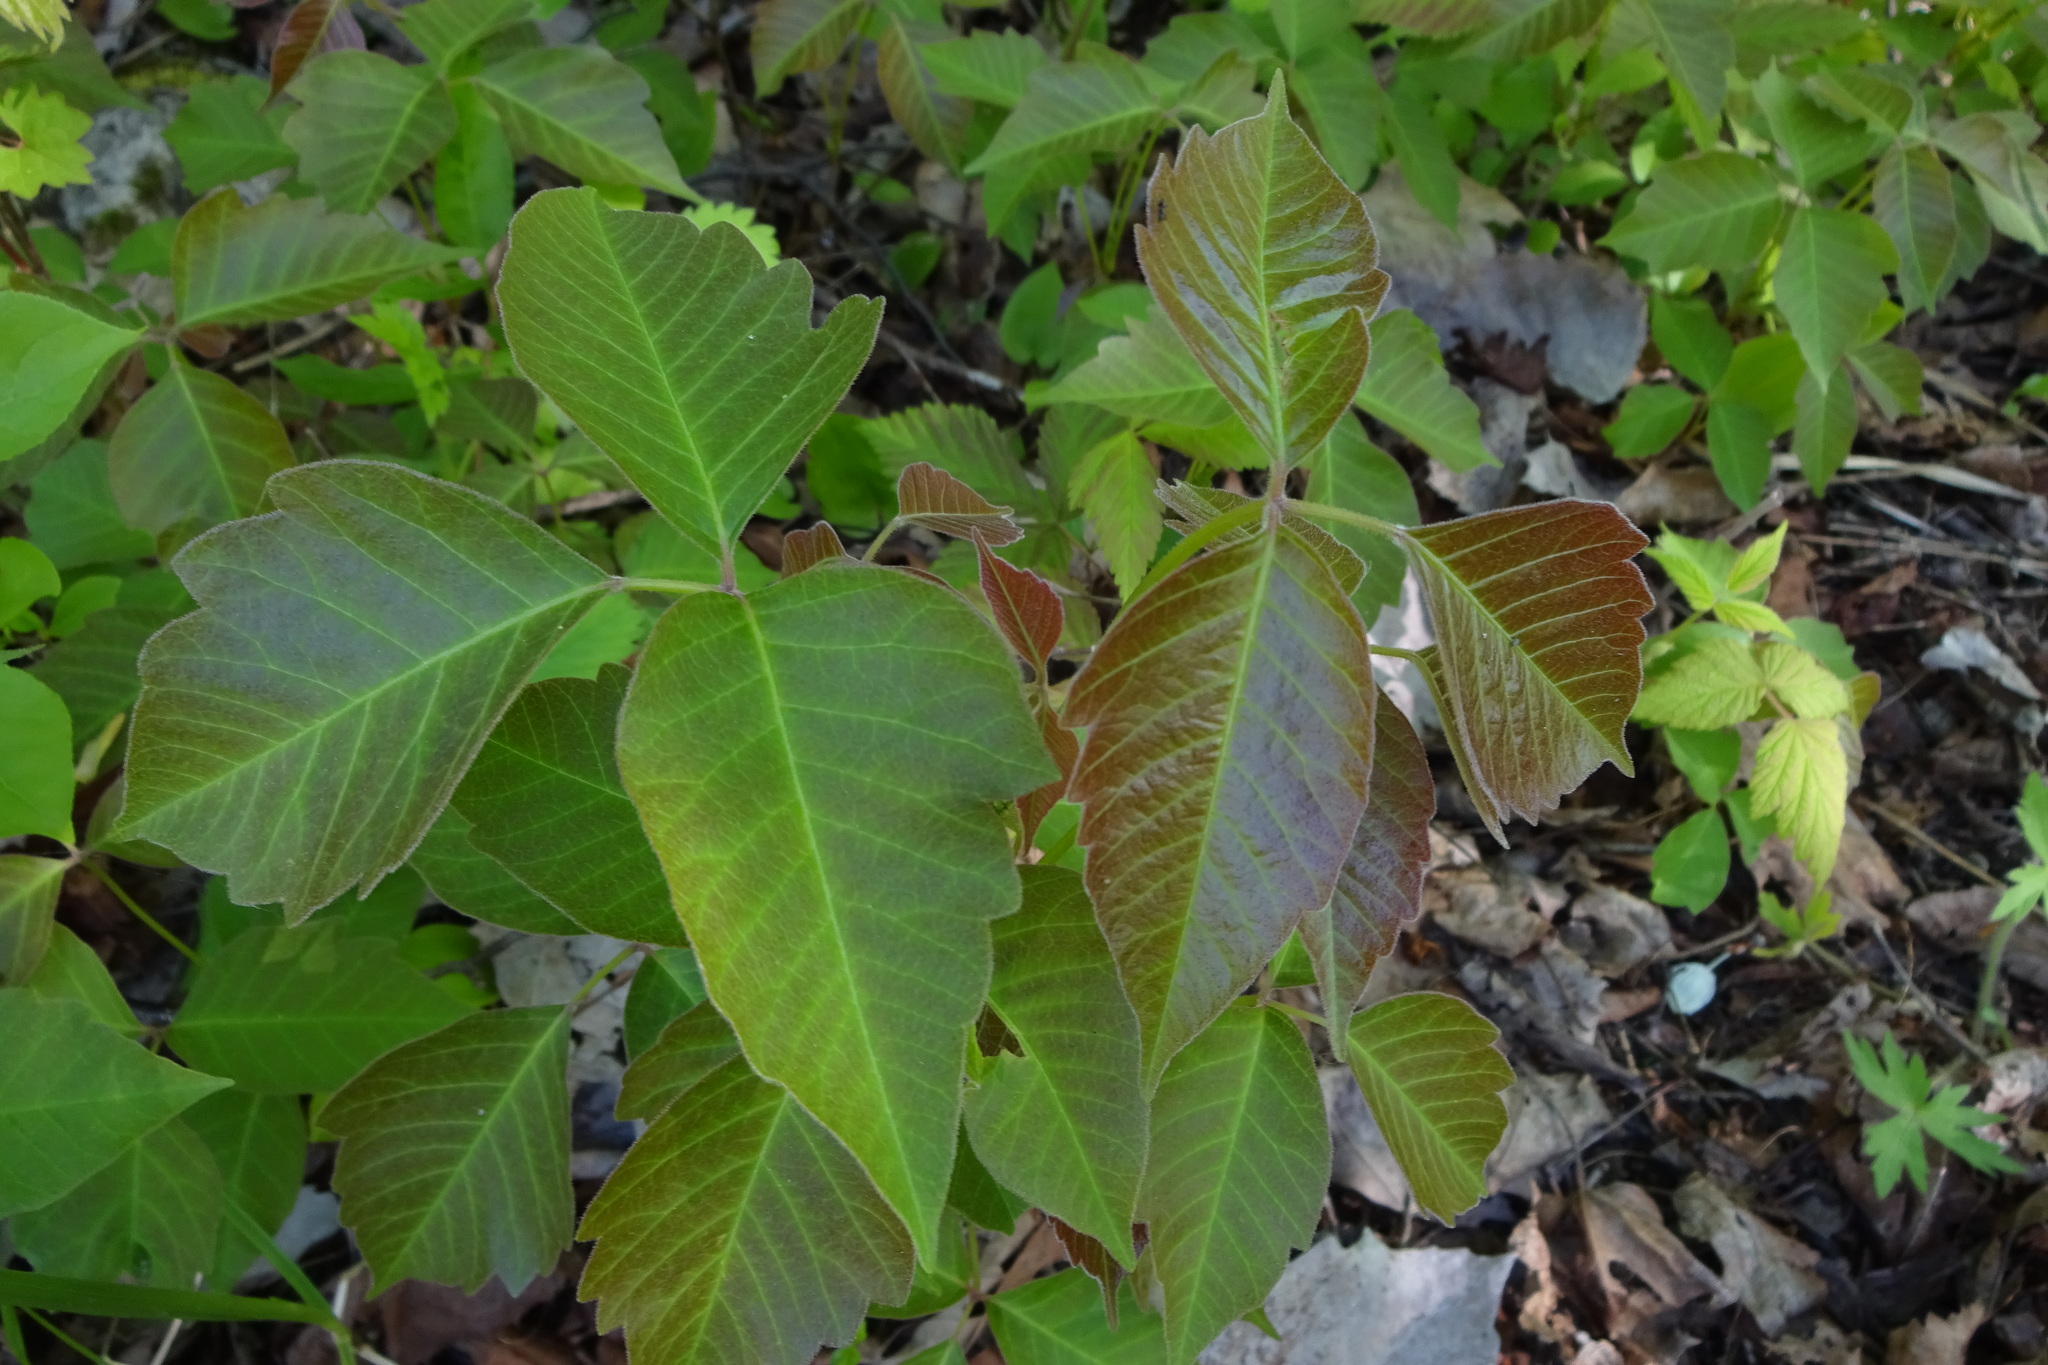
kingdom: Plantae
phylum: Tracheophyta
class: Magnoliopsida
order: Sapindales
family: Anacardiaceae
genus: Toxicodendron
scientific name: Toxicodendron radicans
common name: Poison ivy
